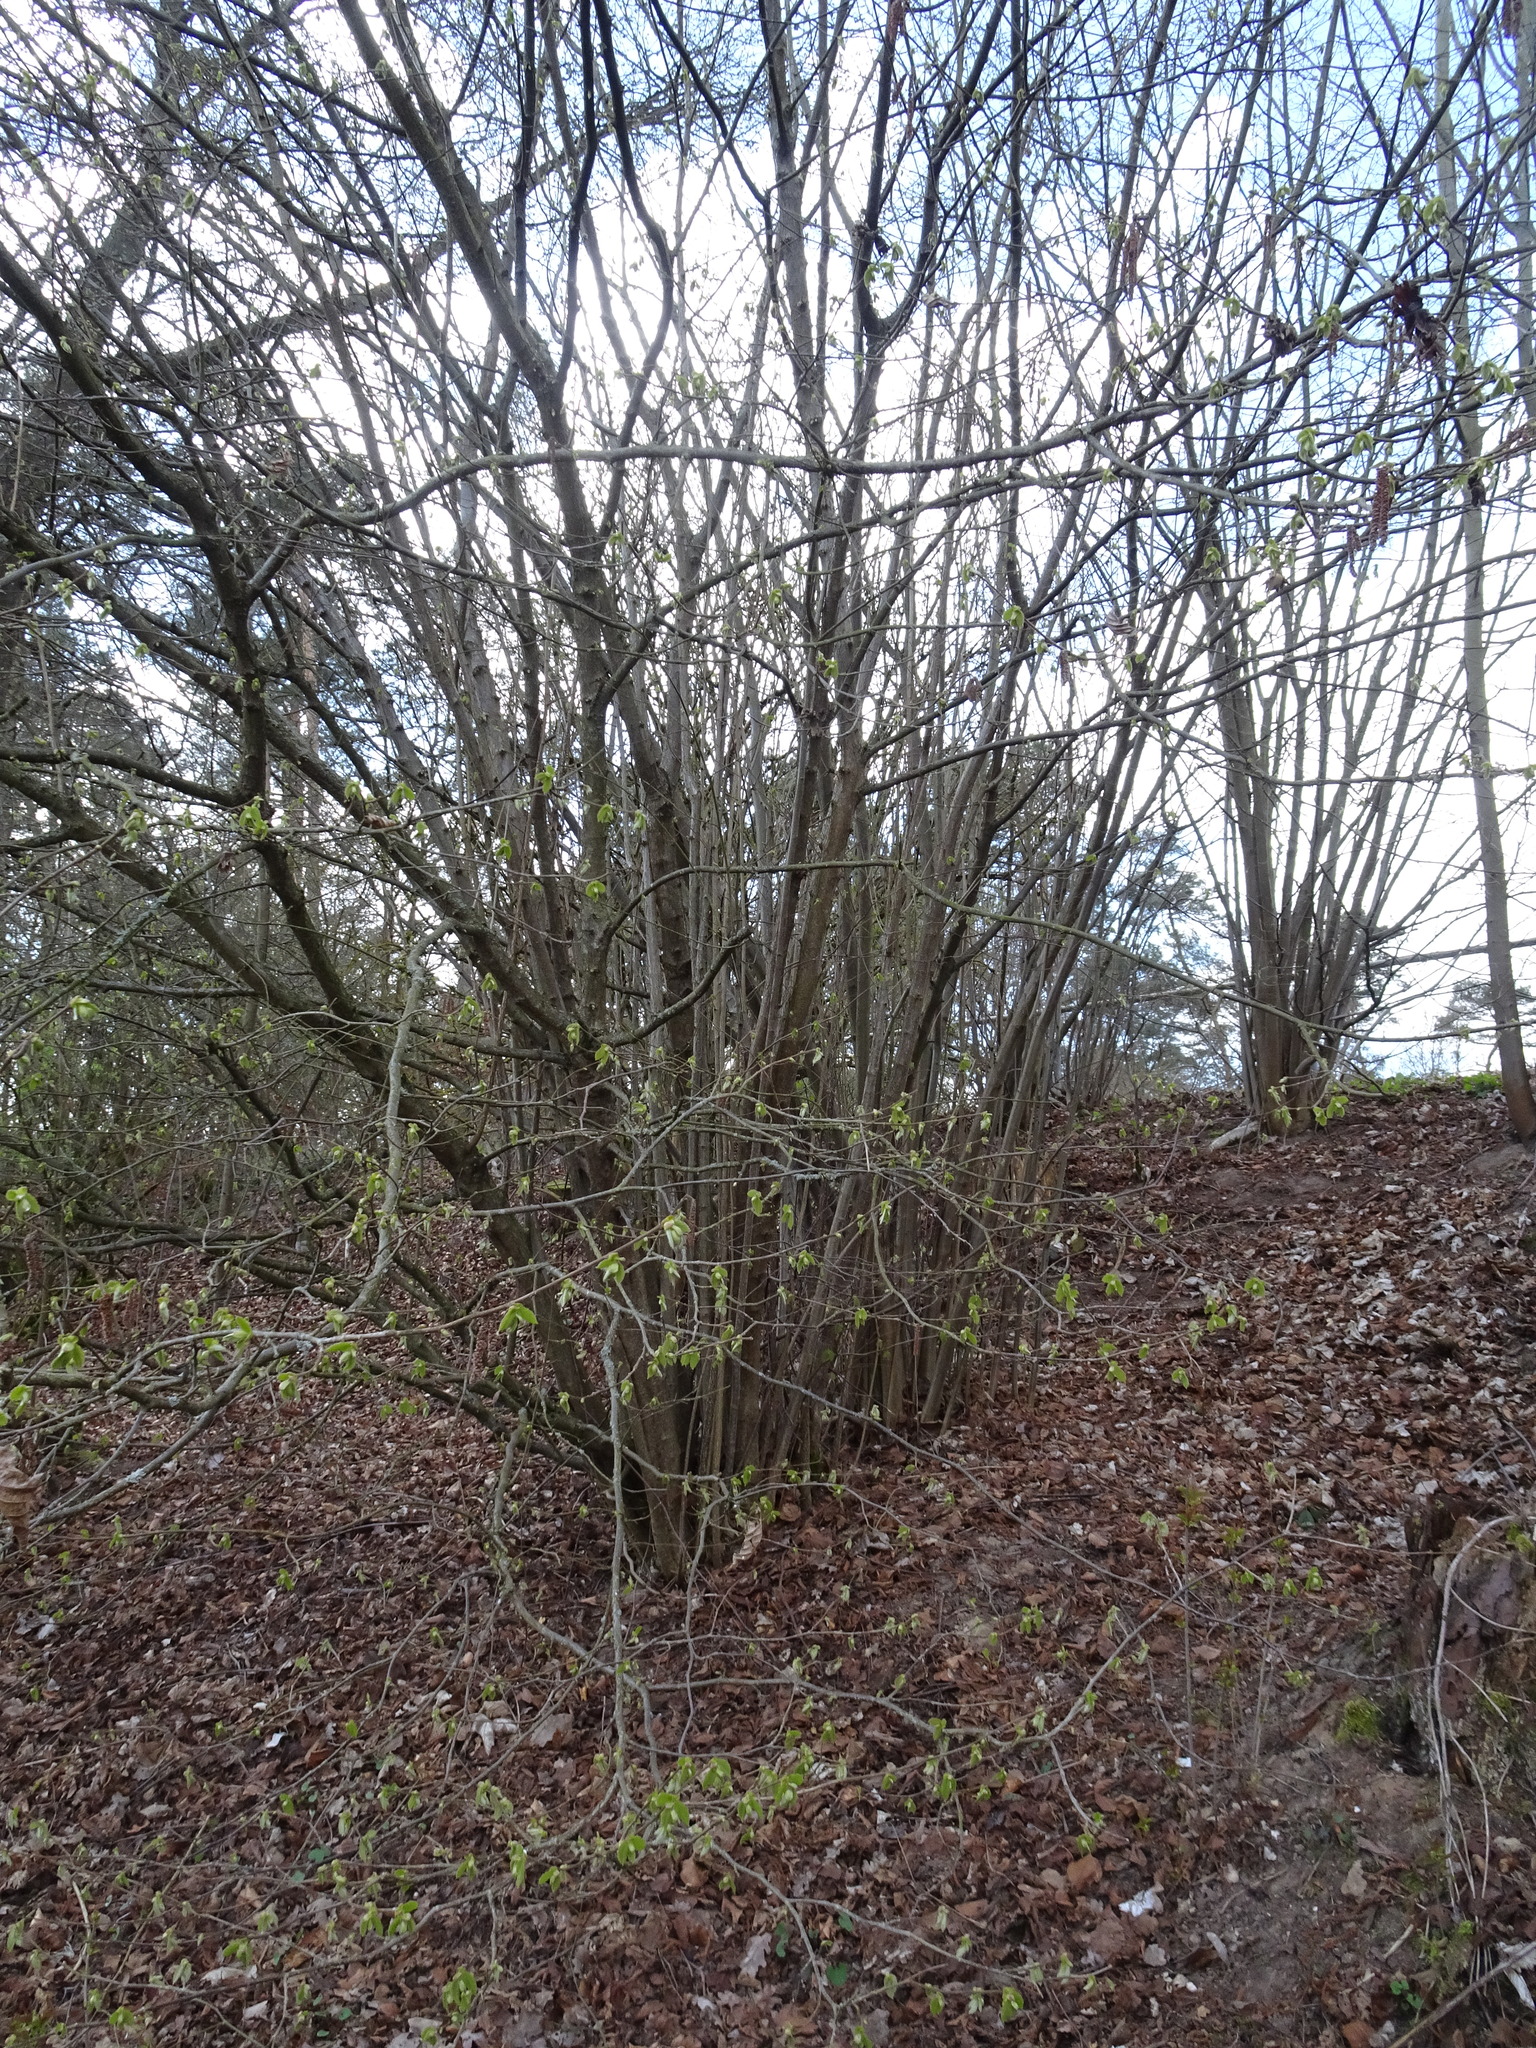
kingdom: Plantae
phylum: Tracheophyta
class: Magnoliopsida
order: Fagales
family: Betulaceae
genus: Corylus
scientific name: Corylus avellana
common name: European hazel
